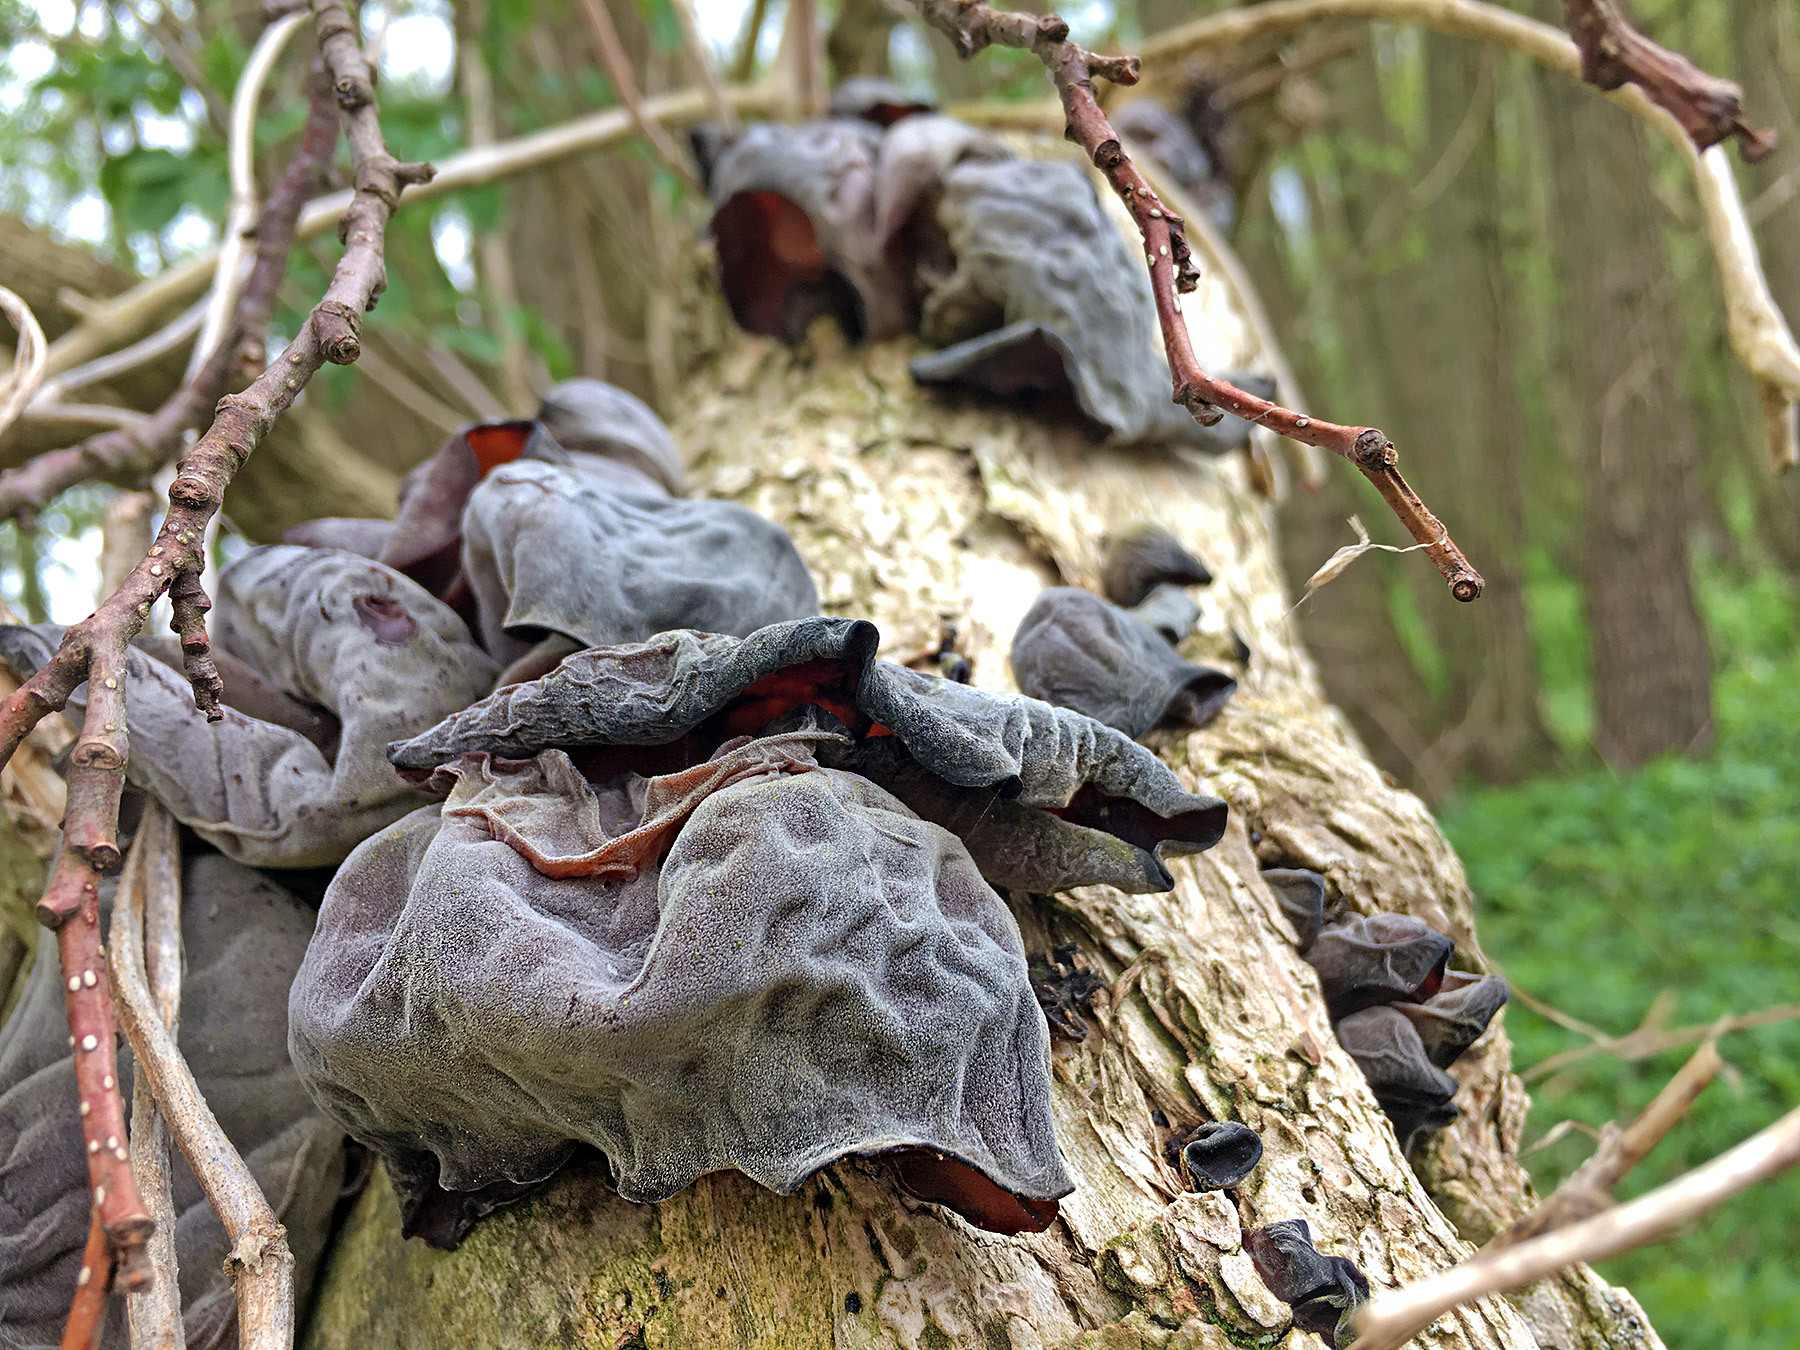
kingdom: Fungi
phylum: Basidiomycota
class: Agaricomycetes
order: Auriculariales
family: Auriculariaceae
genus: Auricularia
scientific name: Auricularia auricula-judae
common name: Jelly ear
